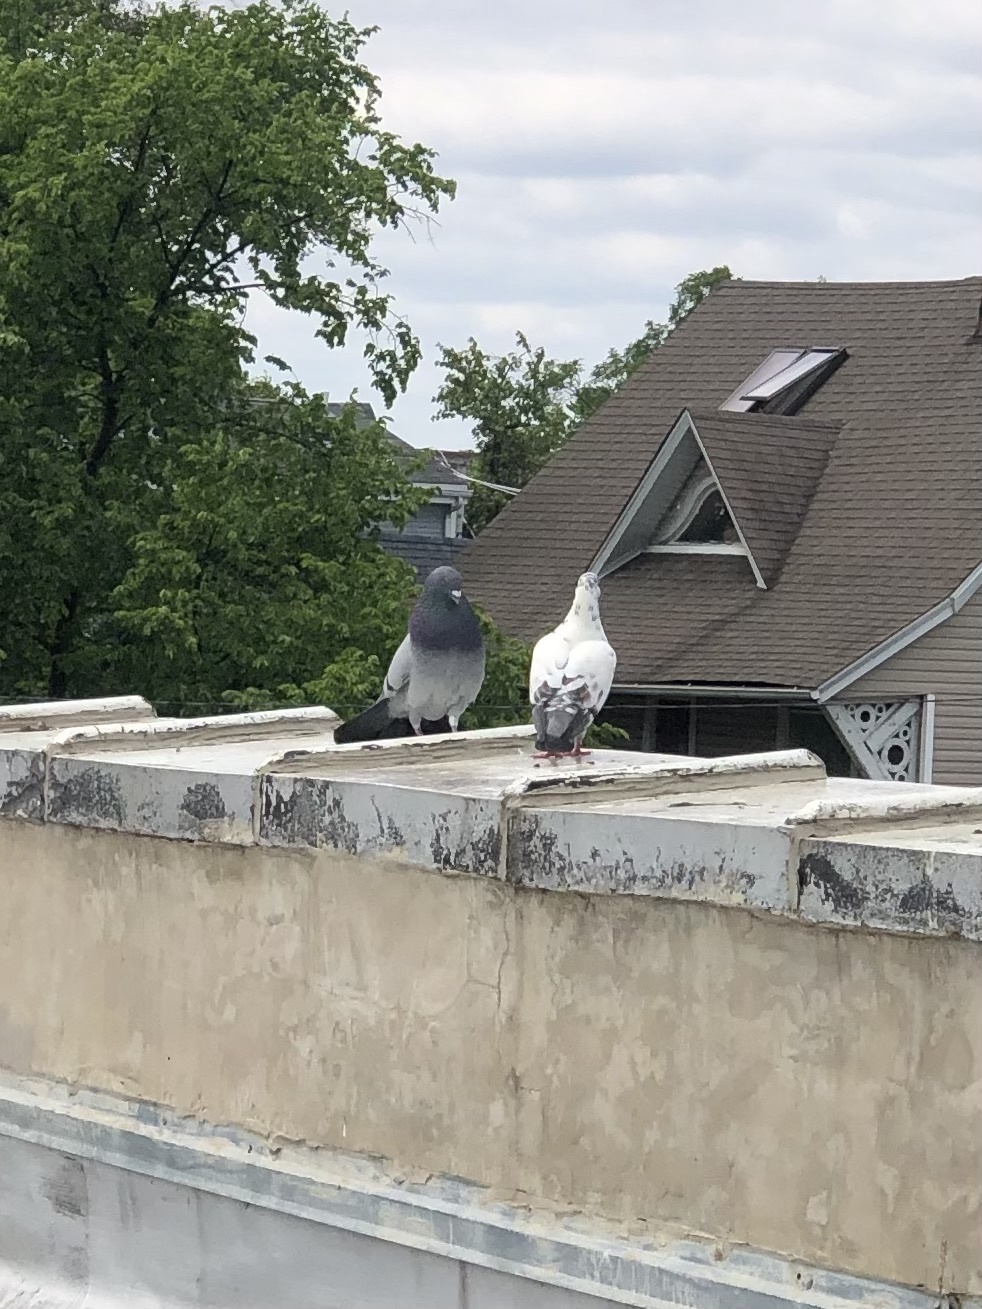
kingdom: Animalia
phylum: Chordata
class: Aves
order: Columbiformes
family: Columbidae
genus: Columba
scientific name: Columba livia
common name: Rock pigeon
